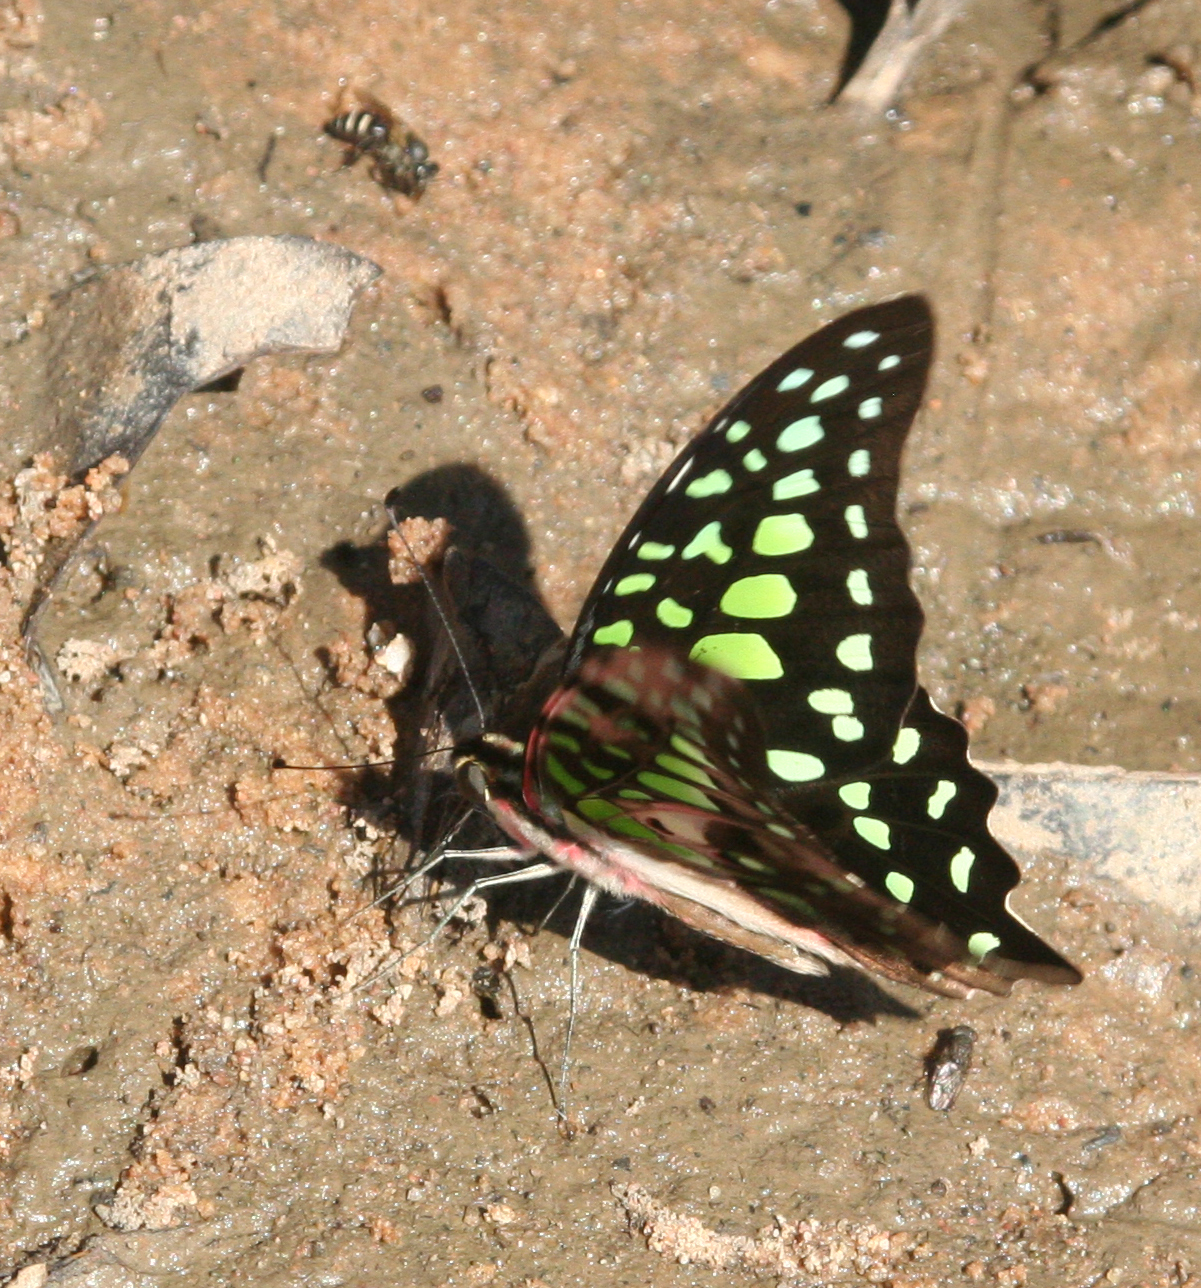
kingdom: Animalia
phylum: Arthropoda
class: Insecta
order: Lepidoptera
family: Papilionidae
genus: Graphium
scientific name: Graphium agamemnon
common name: Tailed jay
